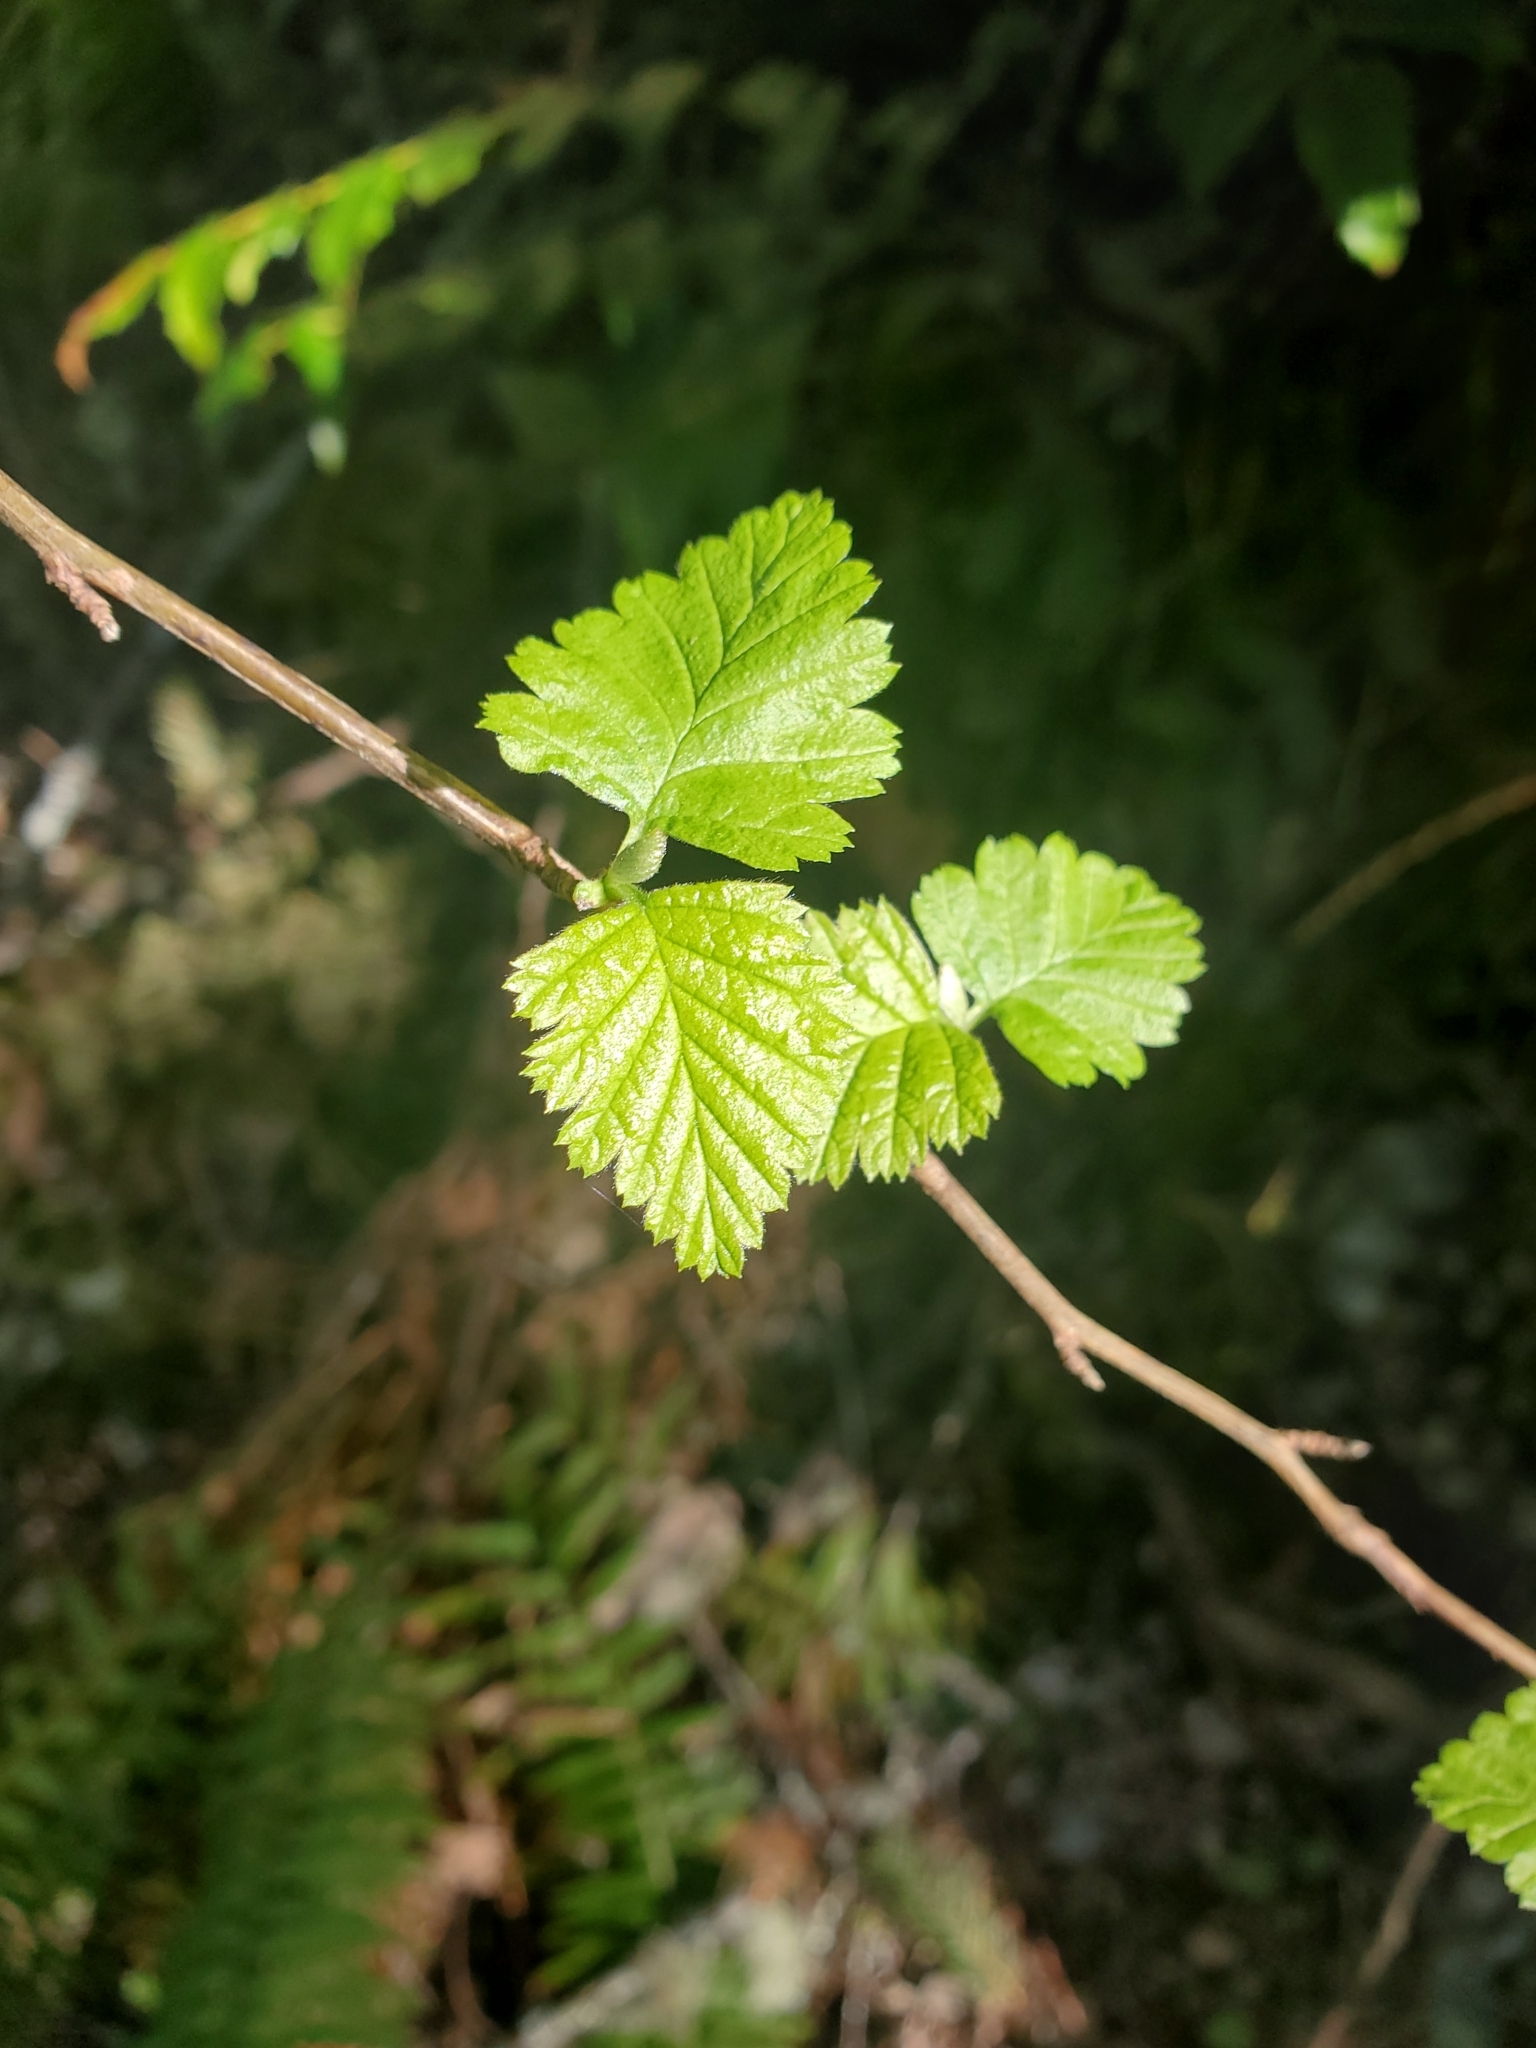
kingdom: Plantae
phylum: Tracheophyta
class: Magnoliopsida
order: Rosales
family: Rosaceae
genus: Holodiscus
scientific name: Holodiscus discolor
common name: Oceanspray
